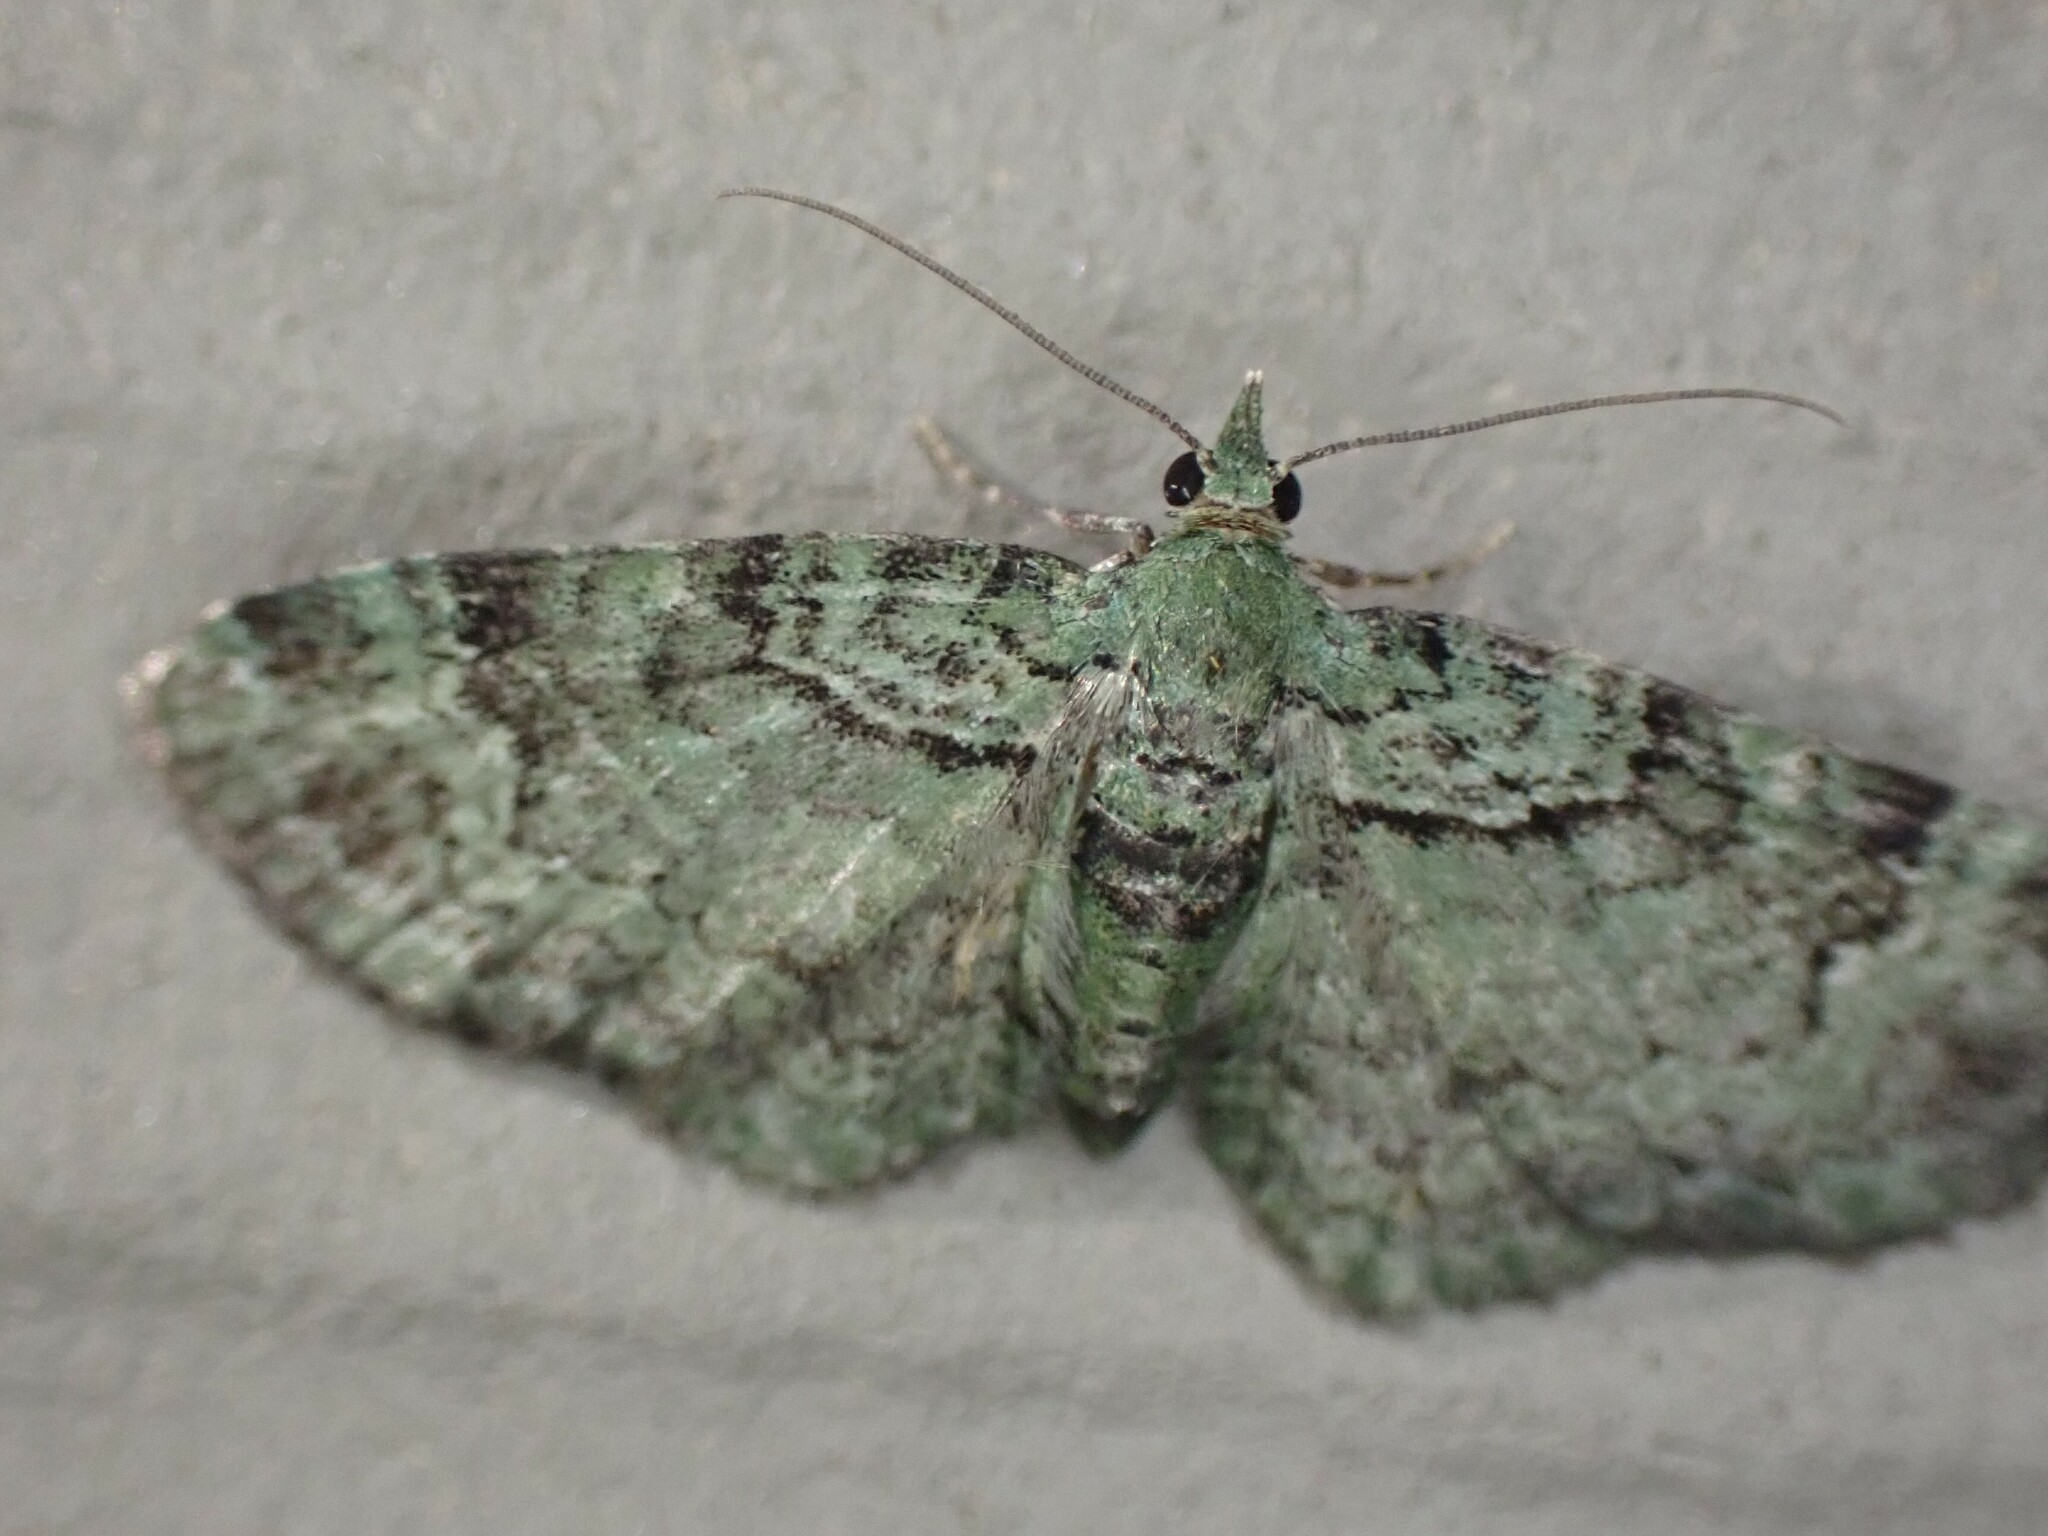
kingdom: Animalia
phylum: Arthropoda
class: Insecta
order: Lepidoptera
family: Geometridae
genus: Pasiphila
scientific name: Pasiphila rectangulata
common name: Green pug
